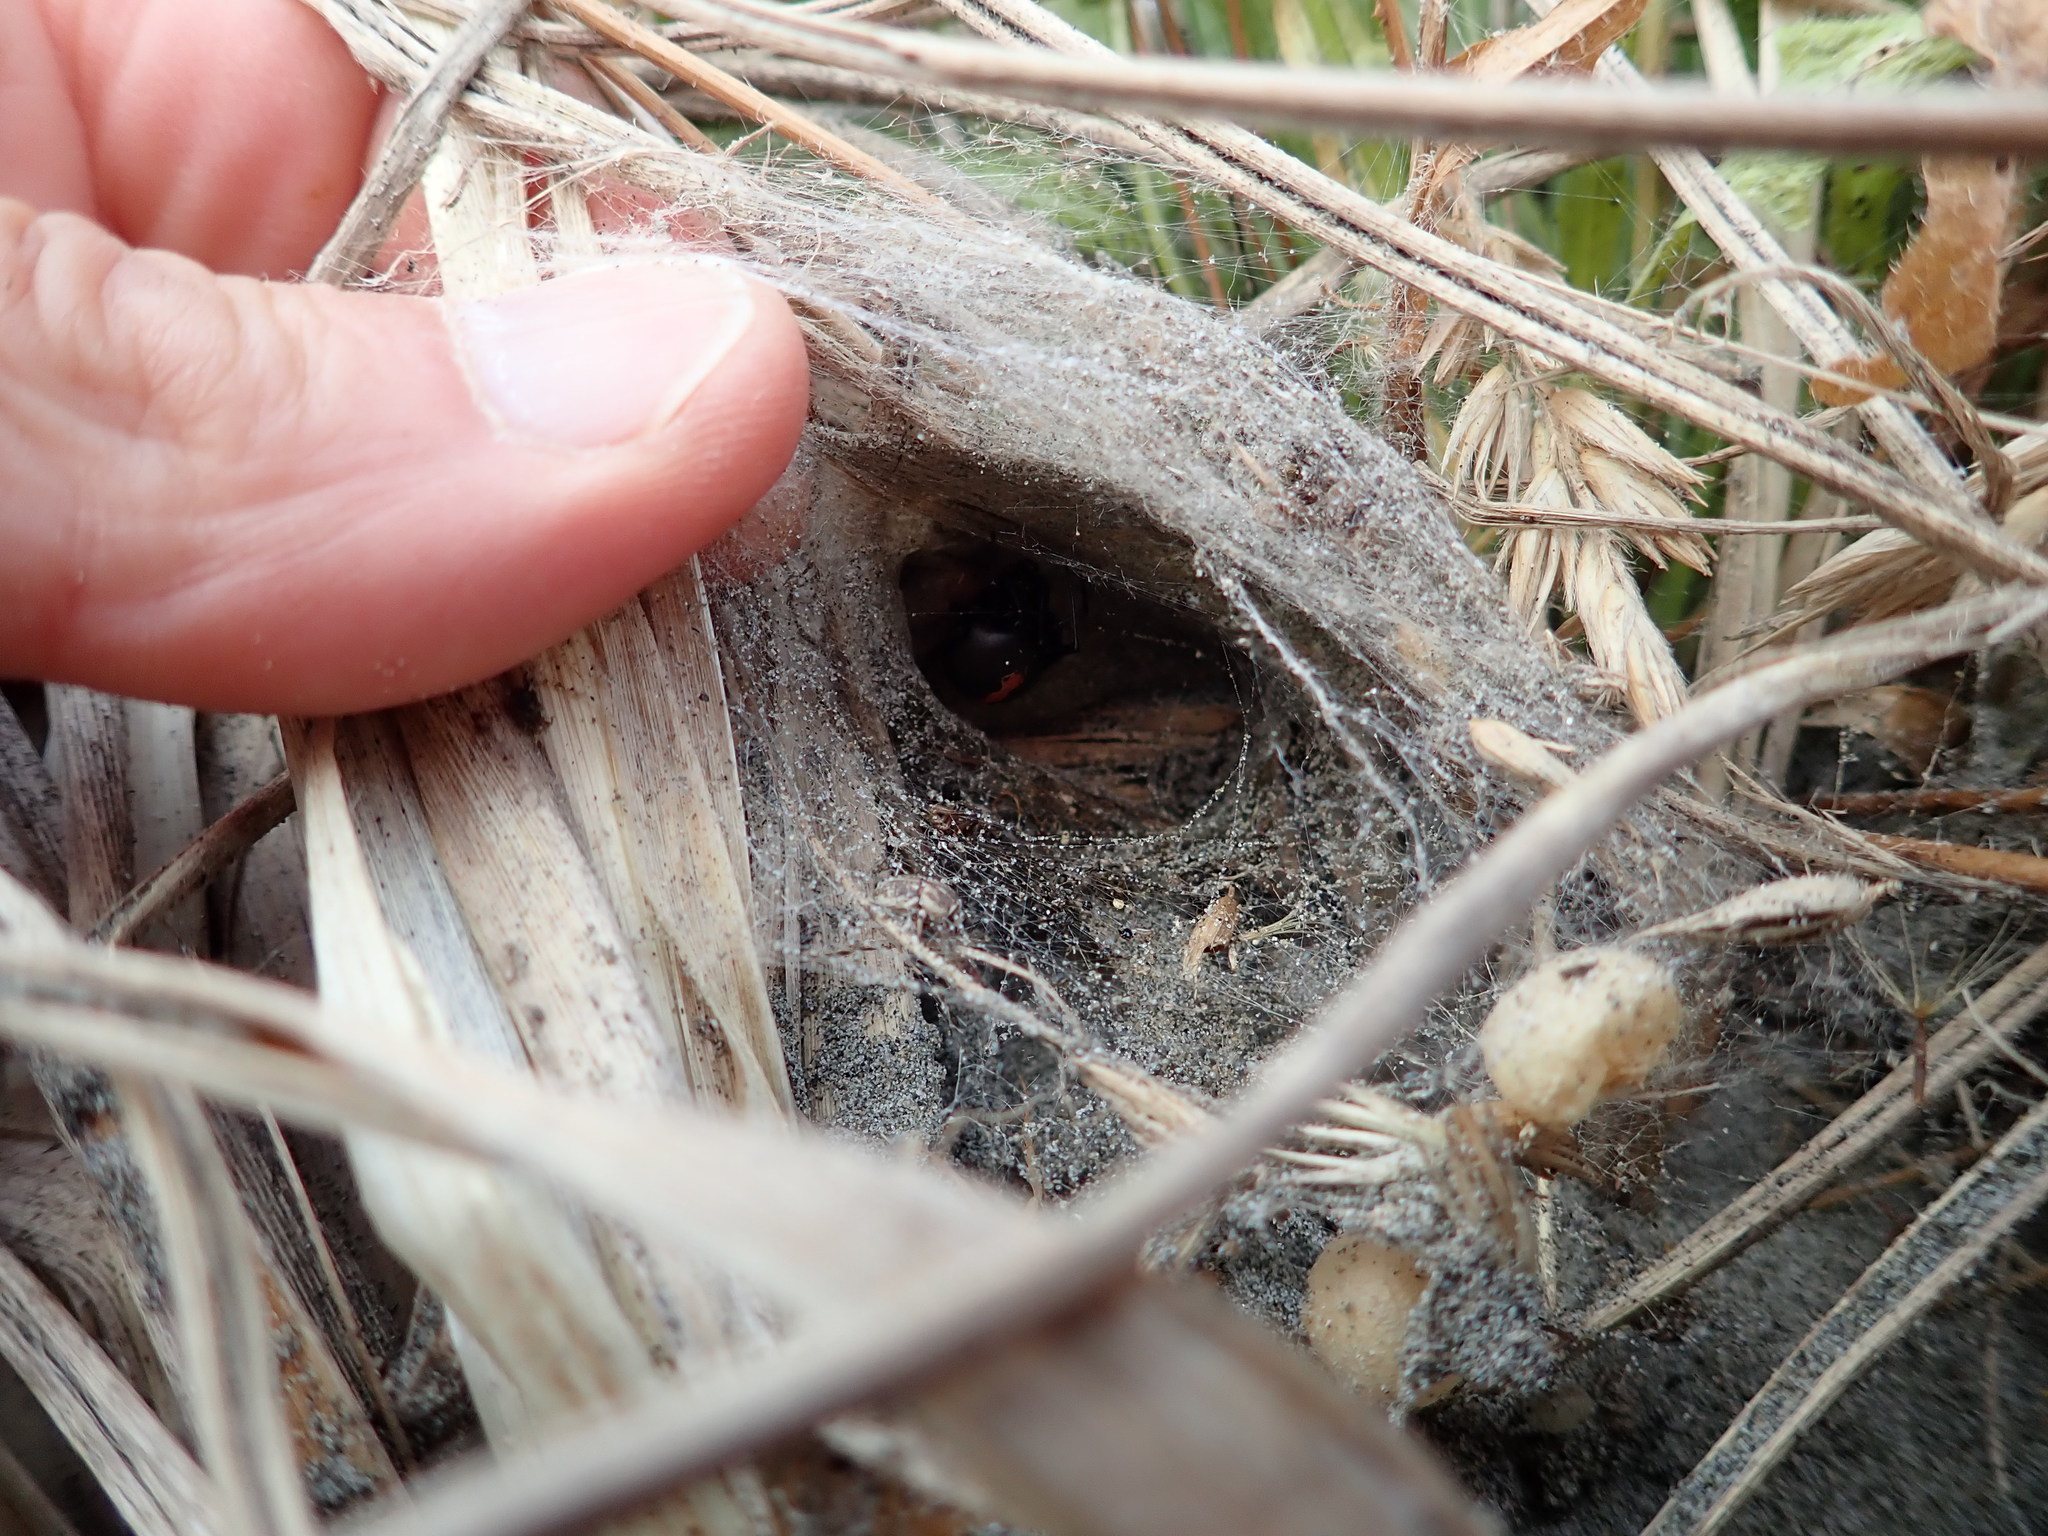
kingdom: Animalia
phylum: Arthropoda
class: Arachnida
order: Araneae
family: Theridiidae
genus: Latrodectus
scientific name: Latrodectus katipo
